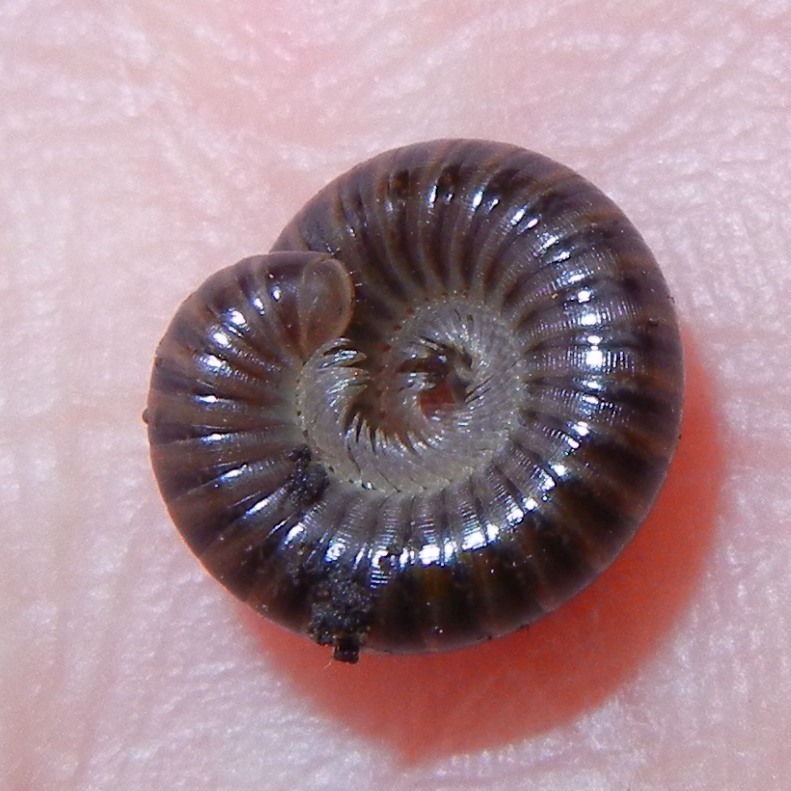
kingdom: Animalia
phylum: Arthropoda
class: Diplopoda
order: Julida
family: Julidae
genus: Cylindroiulus
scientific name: Cylindroiulus caeruleocinctus
